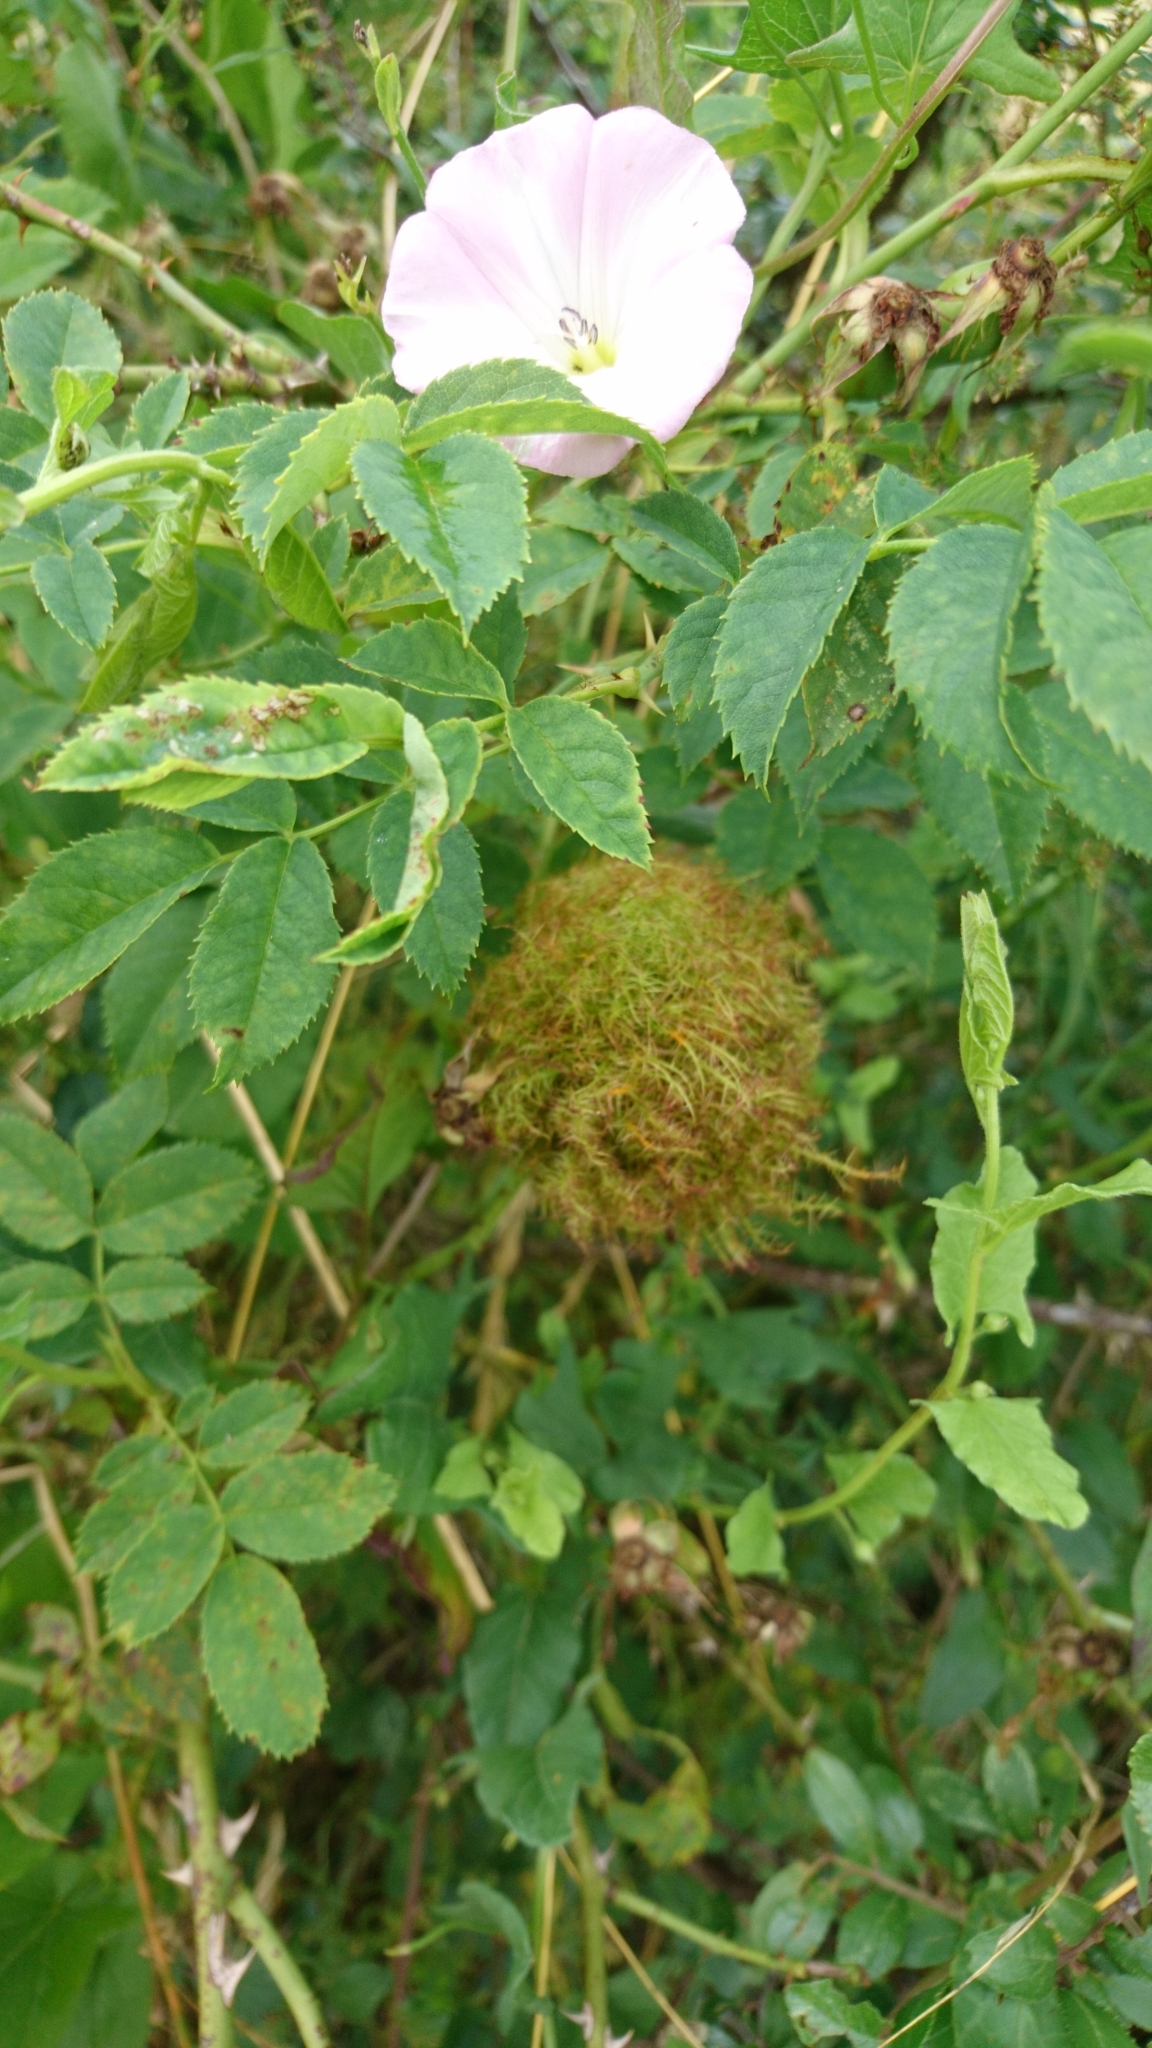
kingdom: Animalia
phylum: Arthropoda
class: Insecta
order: Hymenoptera
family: Cynipidae
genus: Diplolepis
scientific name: Diplolepis rosae
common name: Bedeguar gall
